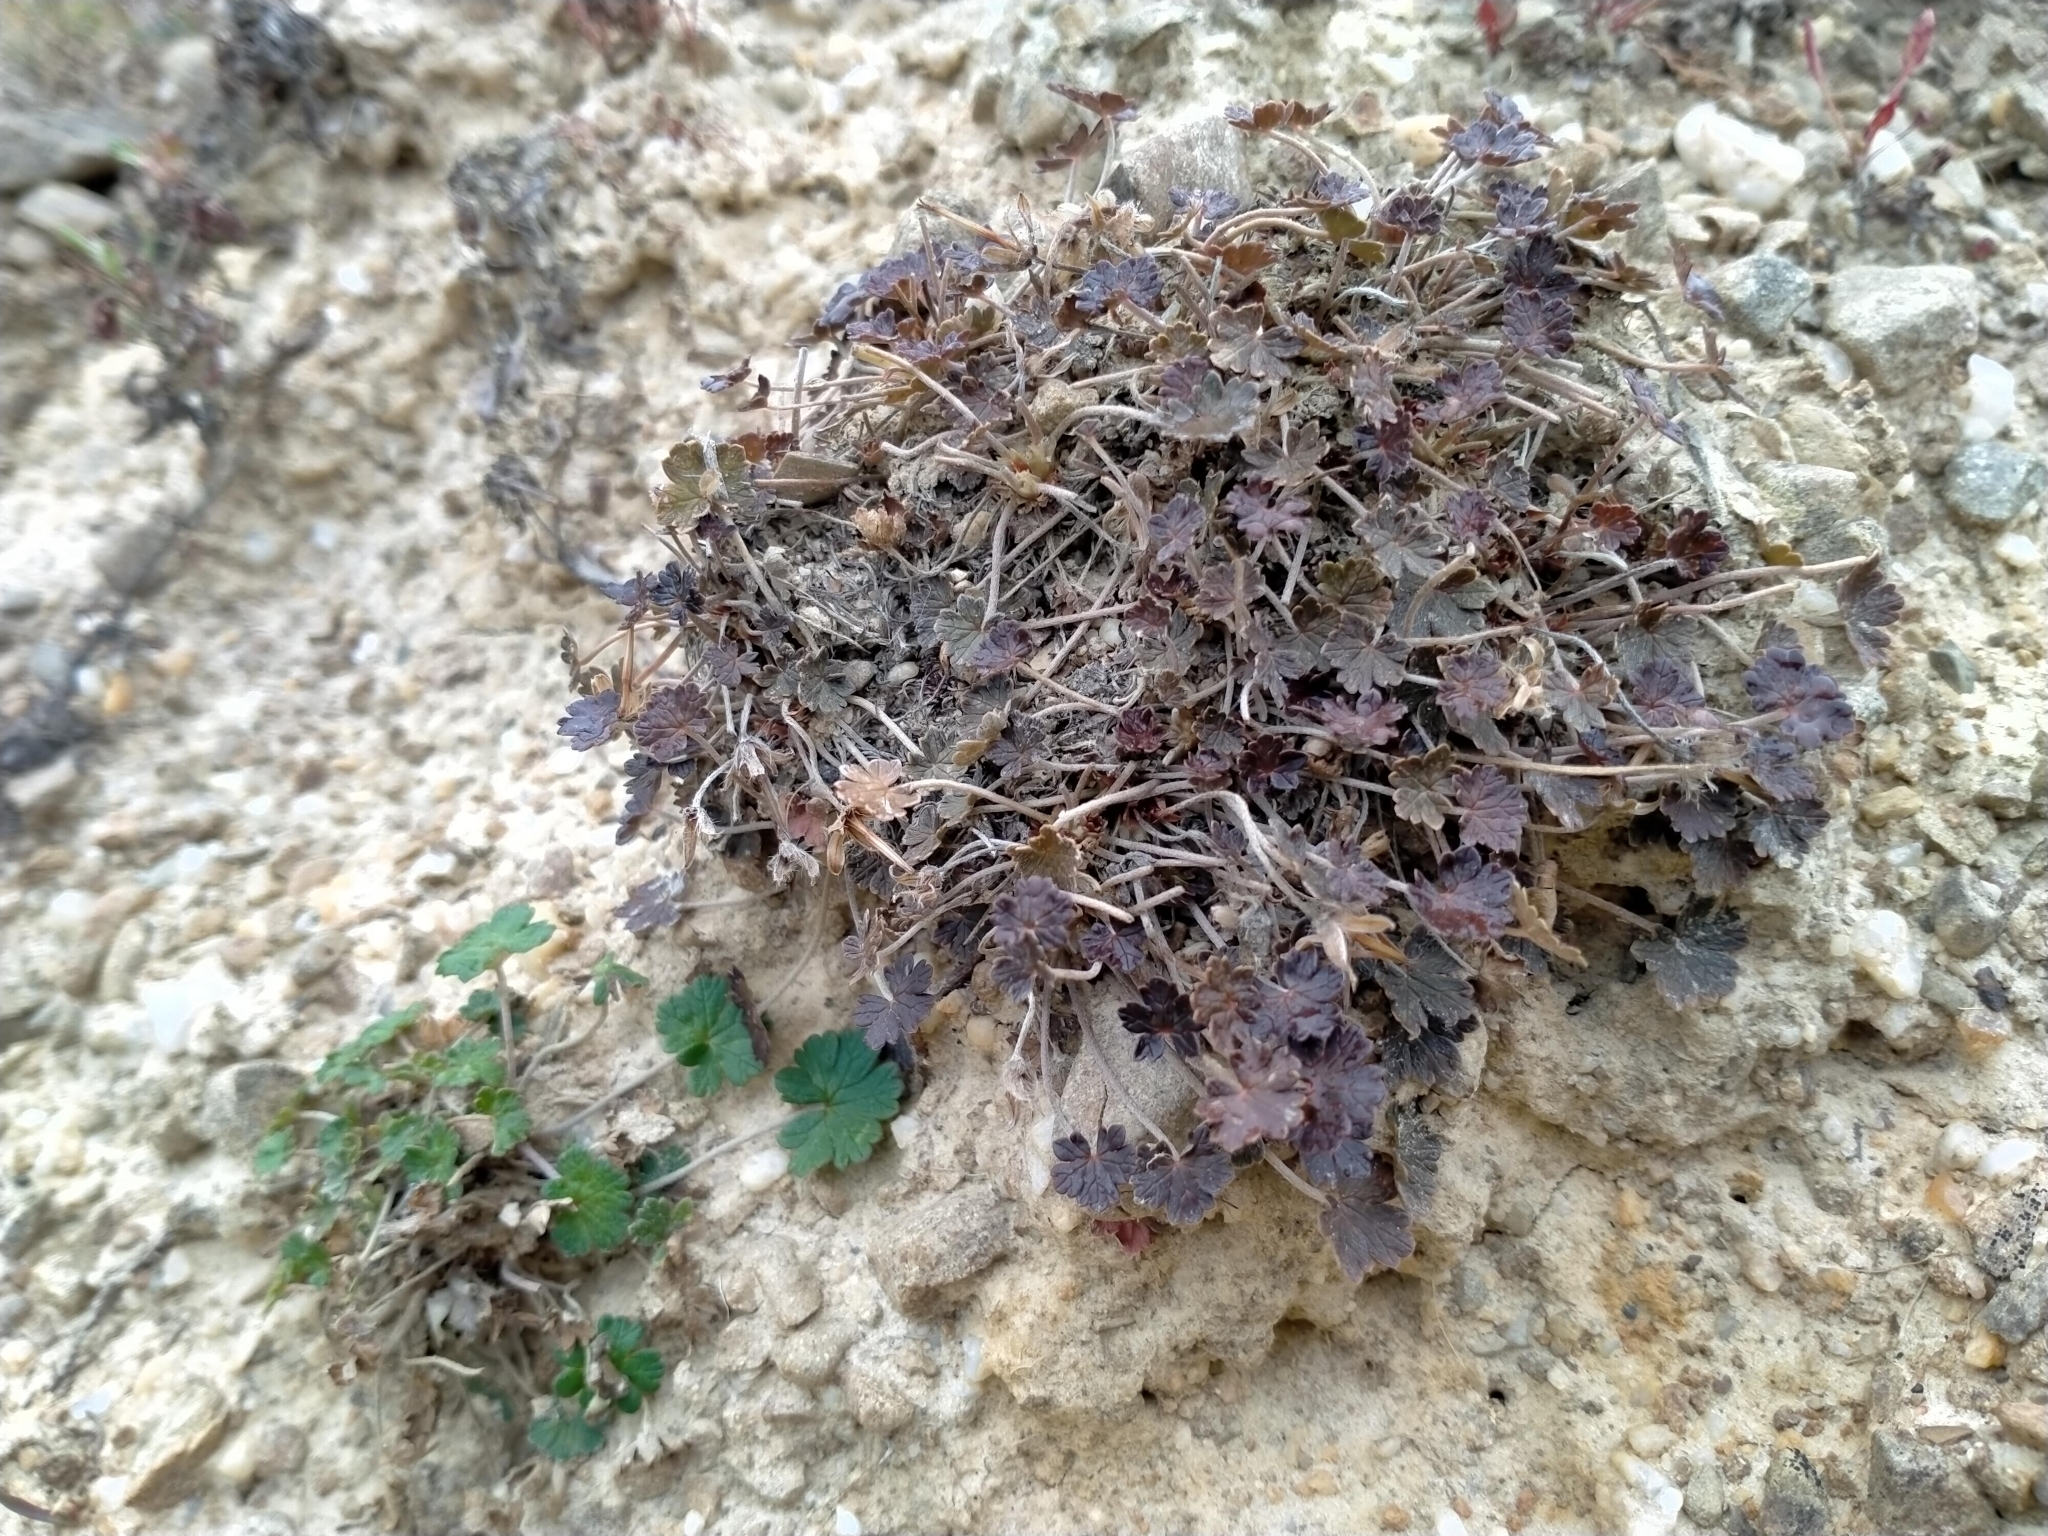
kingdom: Plantae
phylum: Tracheophyta
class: Magnoliopsida
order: Geraniales
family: Geraniaceae
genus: Geranium
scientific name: Geranium brevicaule
